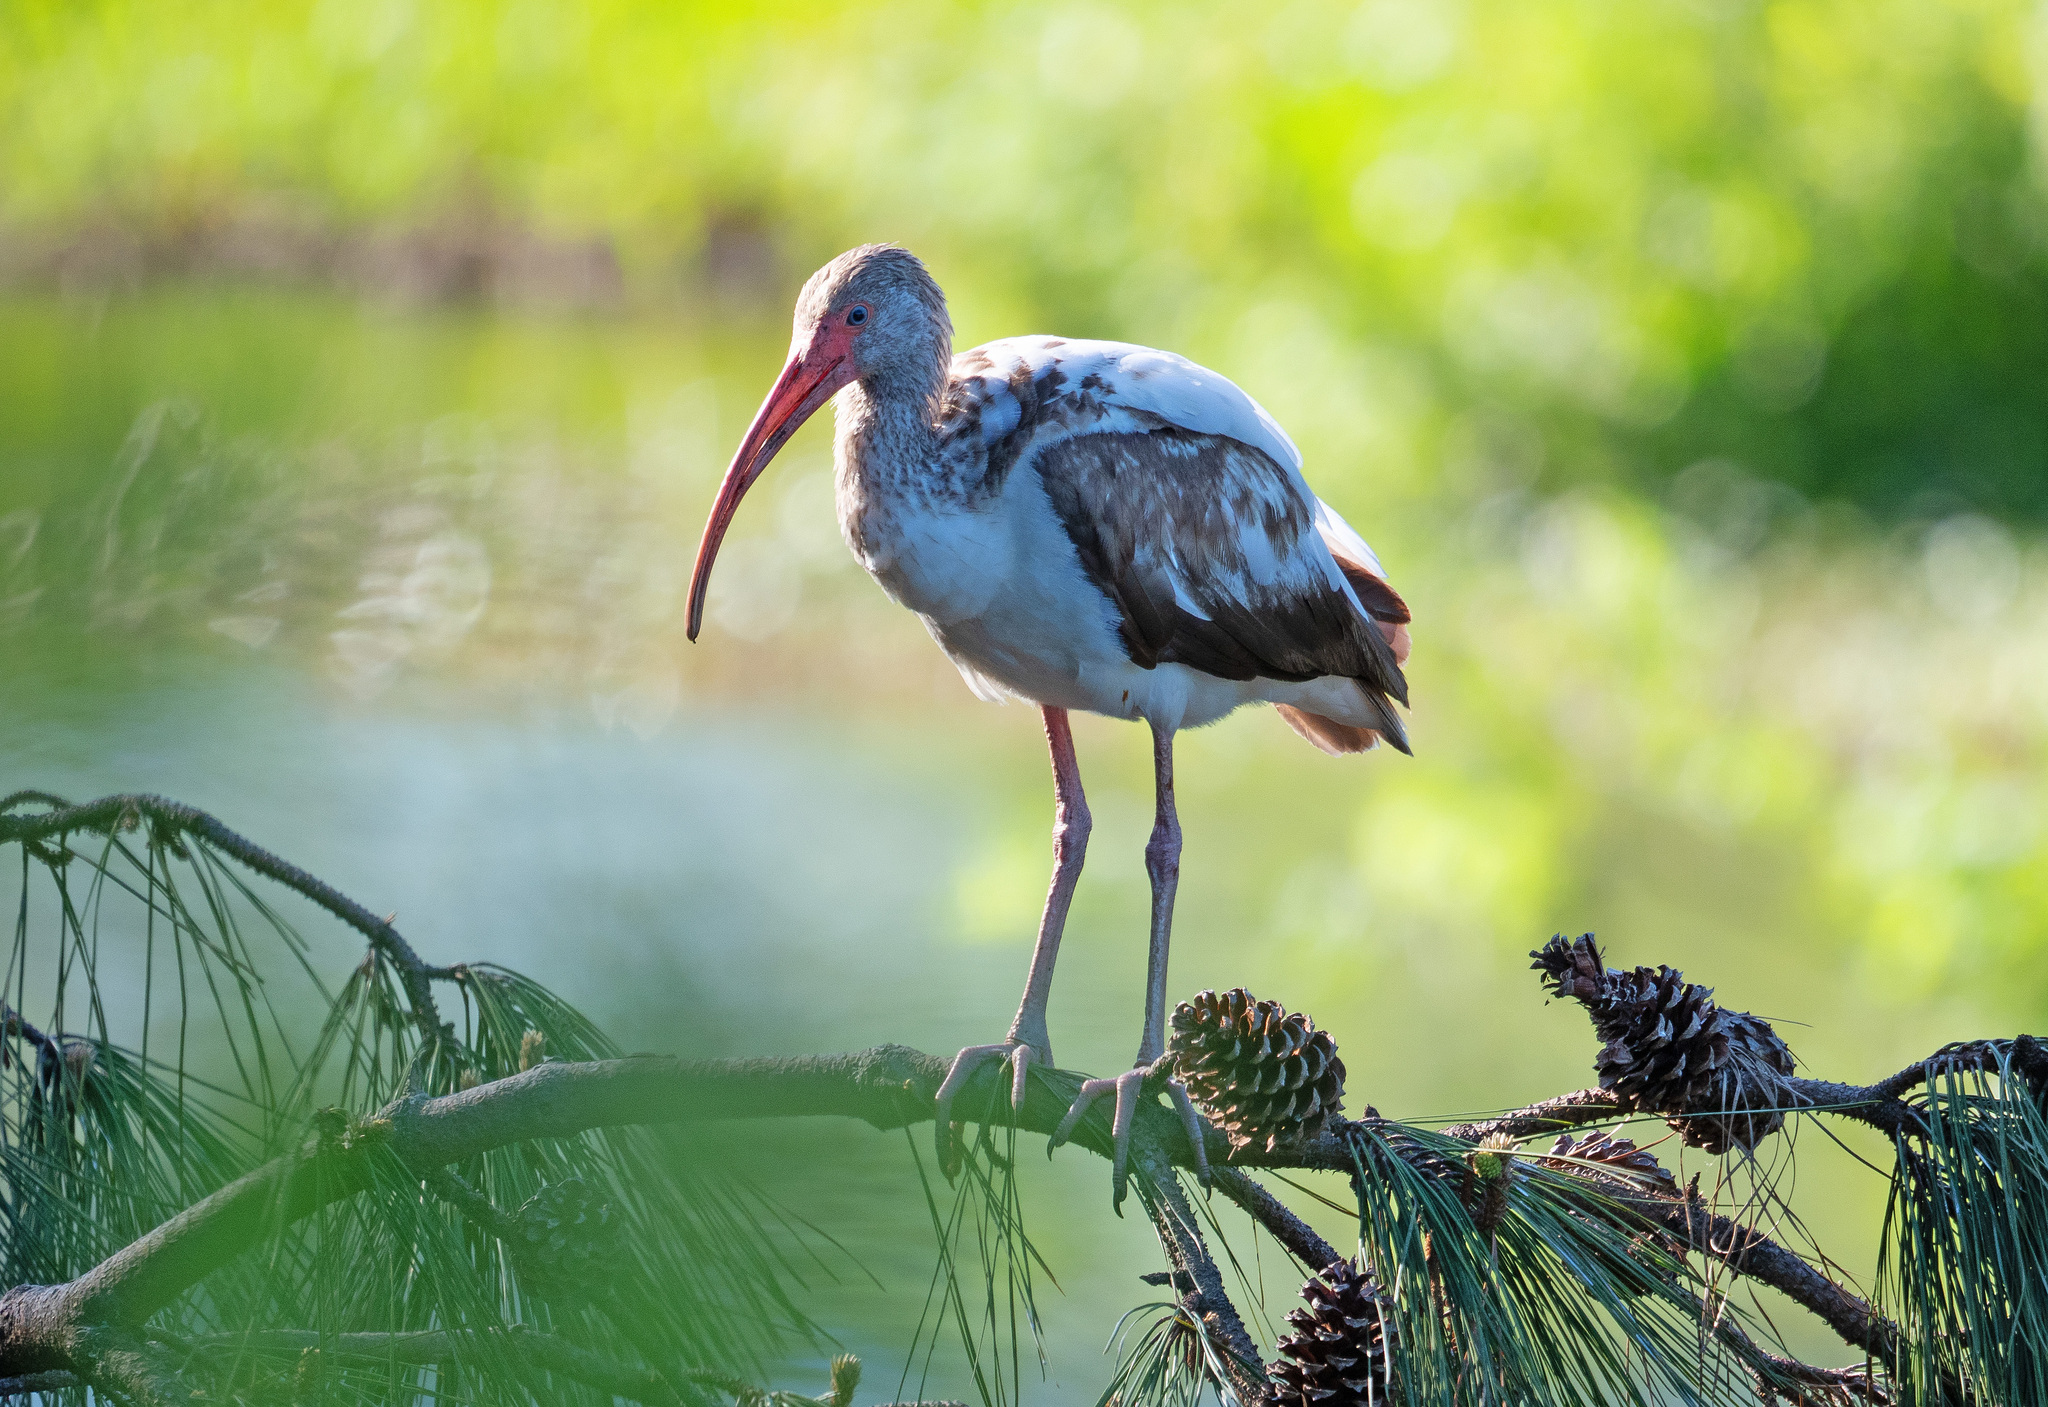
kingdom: Animalia
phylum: Chordata
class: Aves
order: Pelecaniformes
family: Threskiornithidae
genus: Eudocimus
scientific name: Eudocimus albus
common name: White ibis
